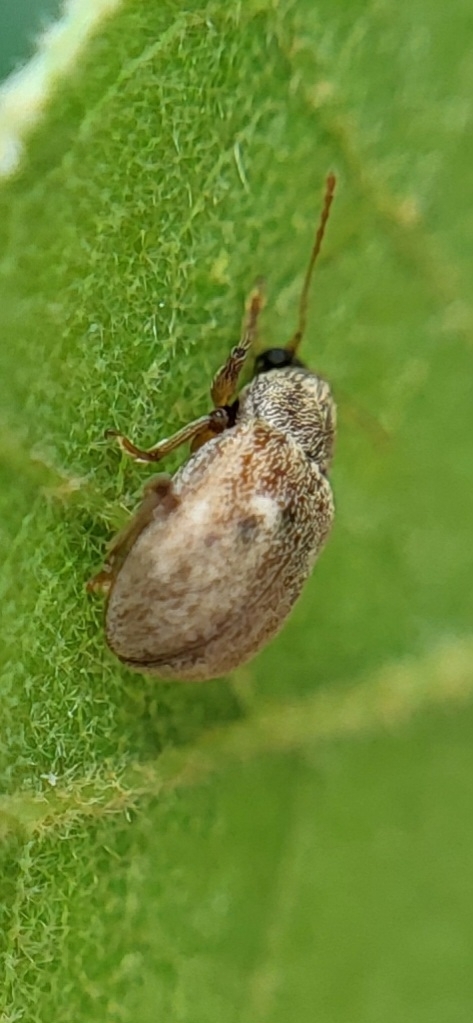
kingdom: Animalia
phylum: Arthropoda
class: Insecta
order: Coleoptera
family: Chrysomelidae
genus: Demotina
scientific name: Demotina modesta
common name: Leaf beetle
